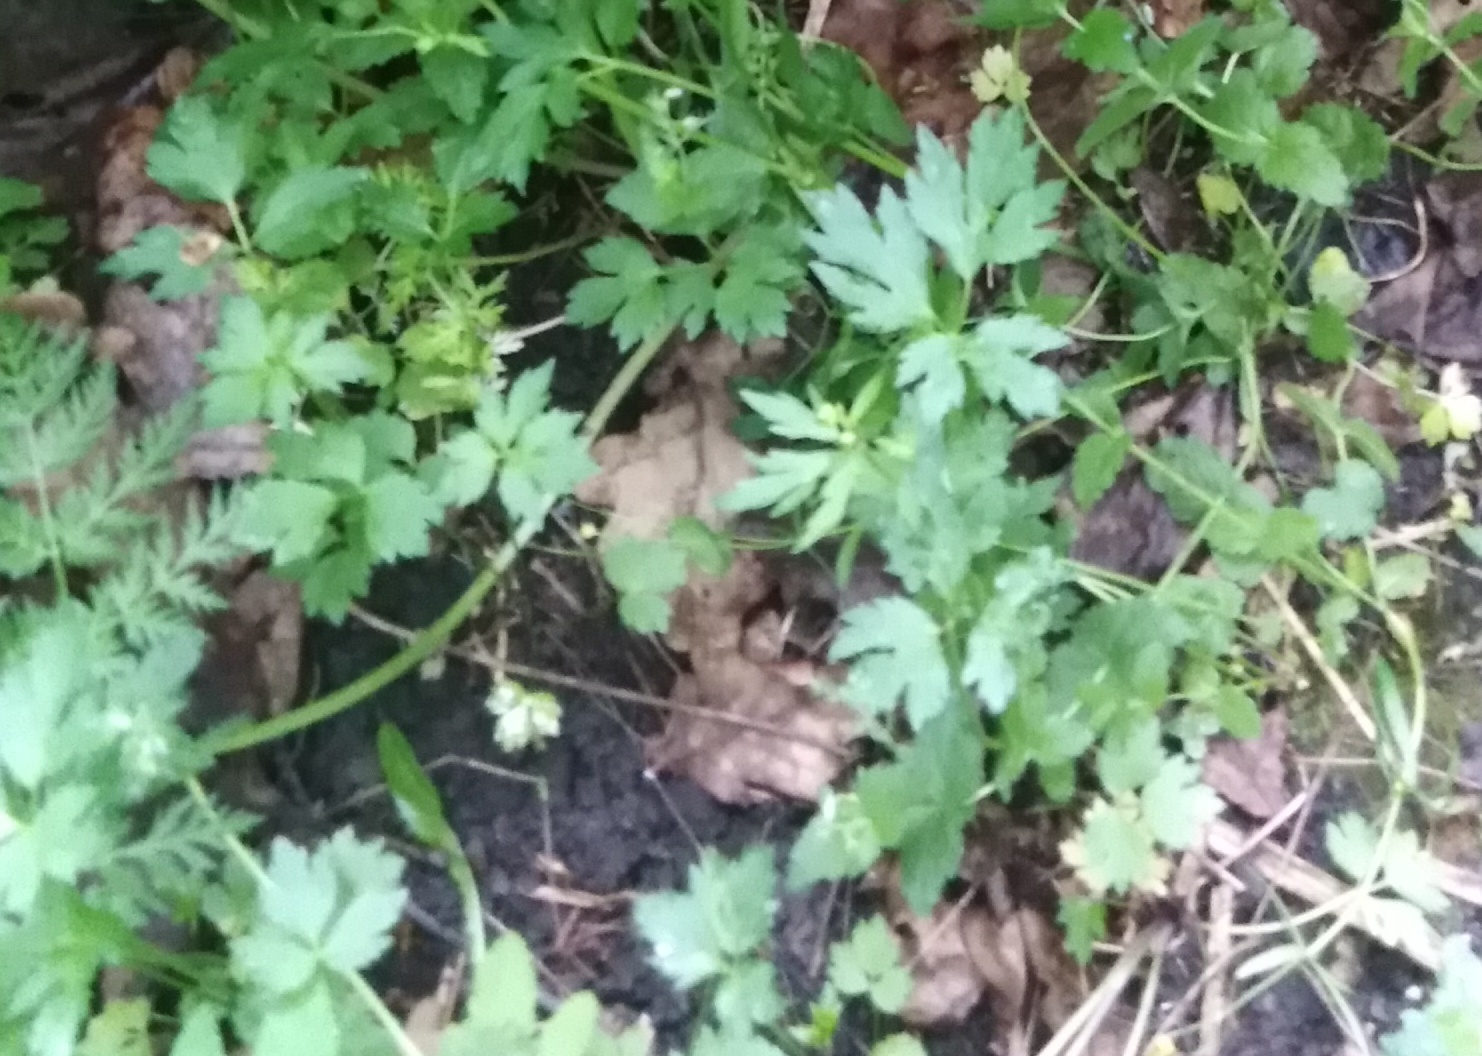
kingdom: Plantae
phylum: Tracheophyta
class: Magnoliopsida
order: Ranunculales
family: Ranunculaceae
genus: Ranunculus
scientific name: Ranunculus repens
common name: Creeping buttercup
